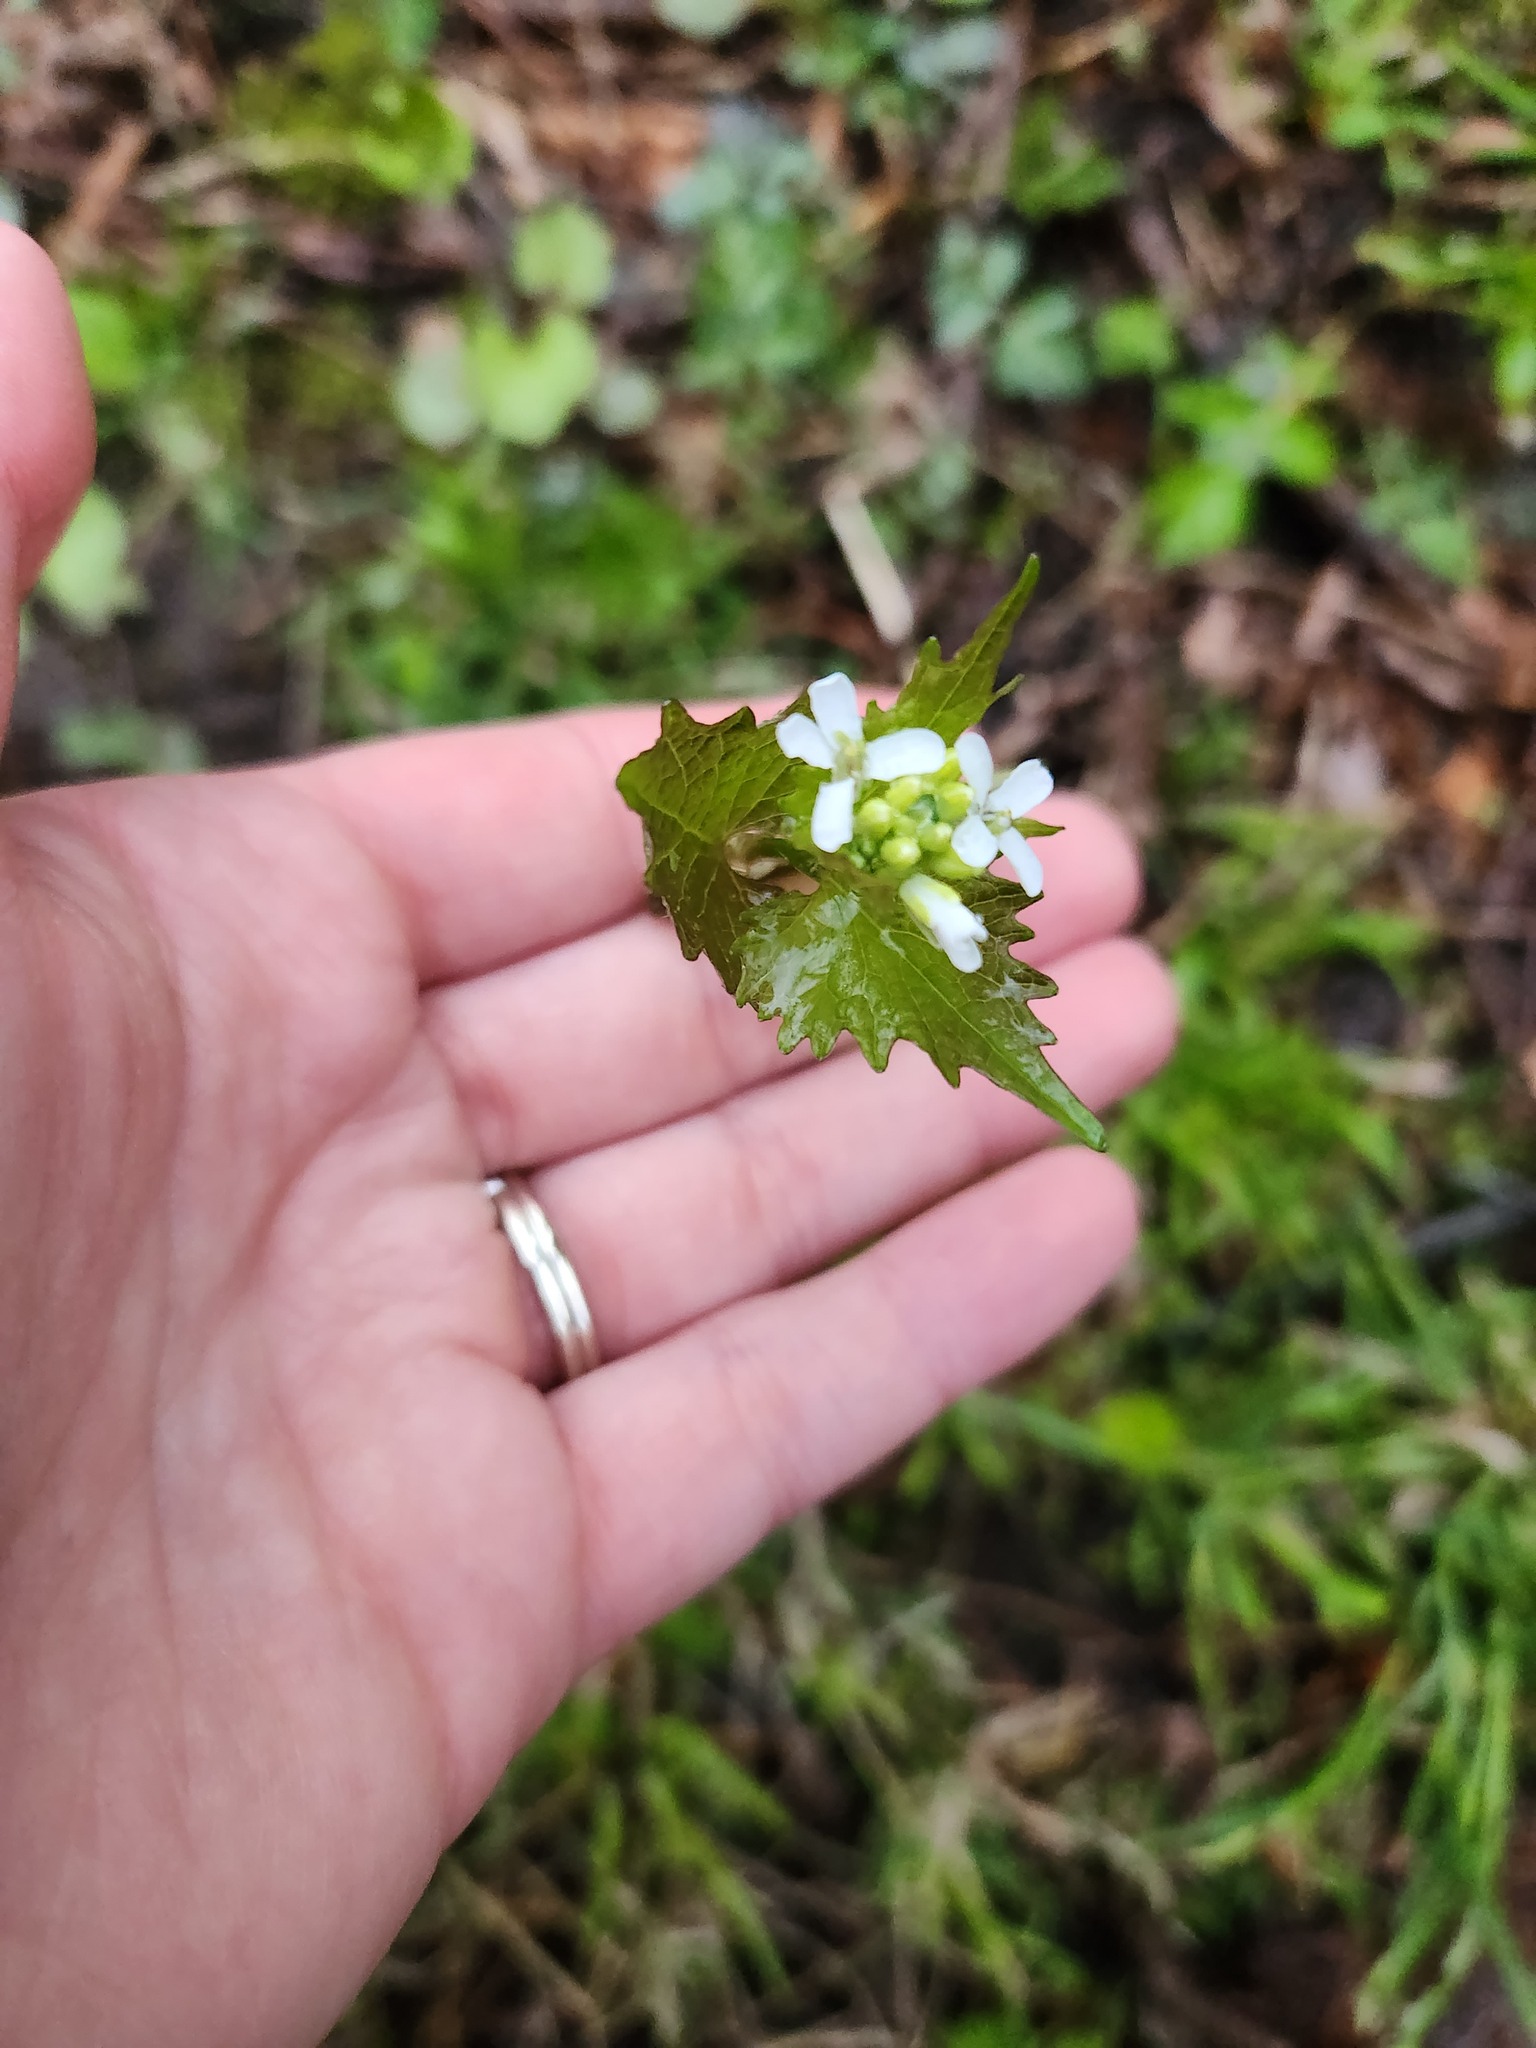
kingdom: Plantae
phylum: Tracheophyta
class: Magnoliopsida
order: Brassicales
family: Brassicaceae
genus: Alliaria
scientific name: Alliaria petiolata
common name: Garlic mustard
